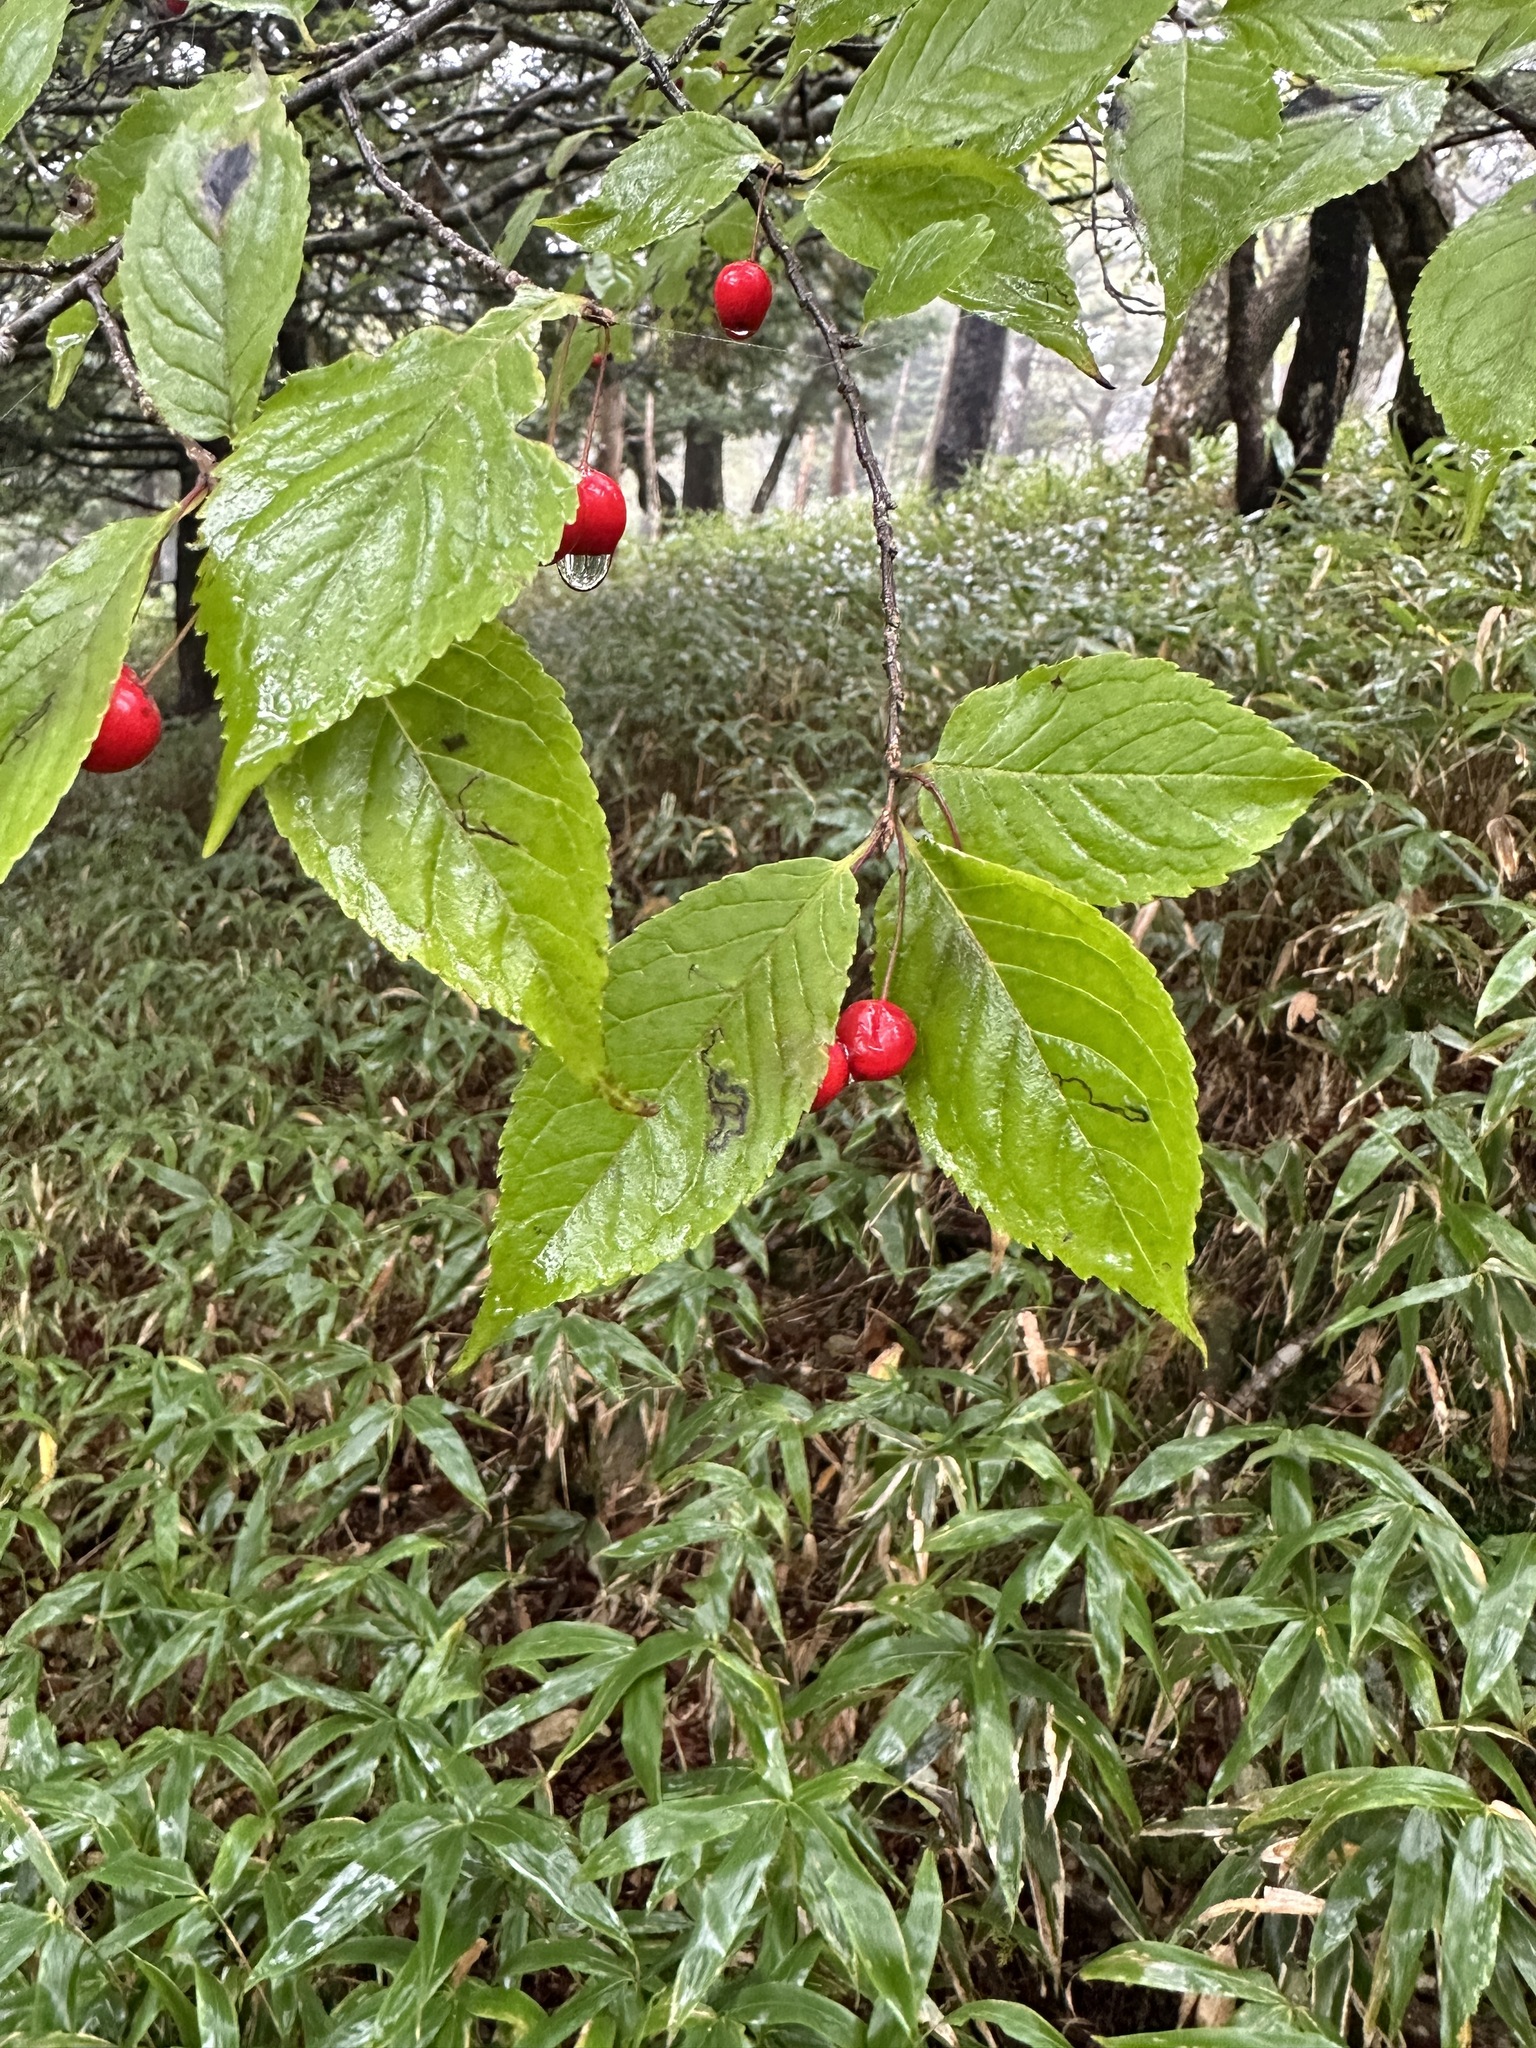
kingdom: Plantae
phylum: Tracheophyta
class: Magnoliopsida
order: Aquifoliales
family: Aquifoliaceae
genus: Ilex
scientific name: Ilex geniculata
